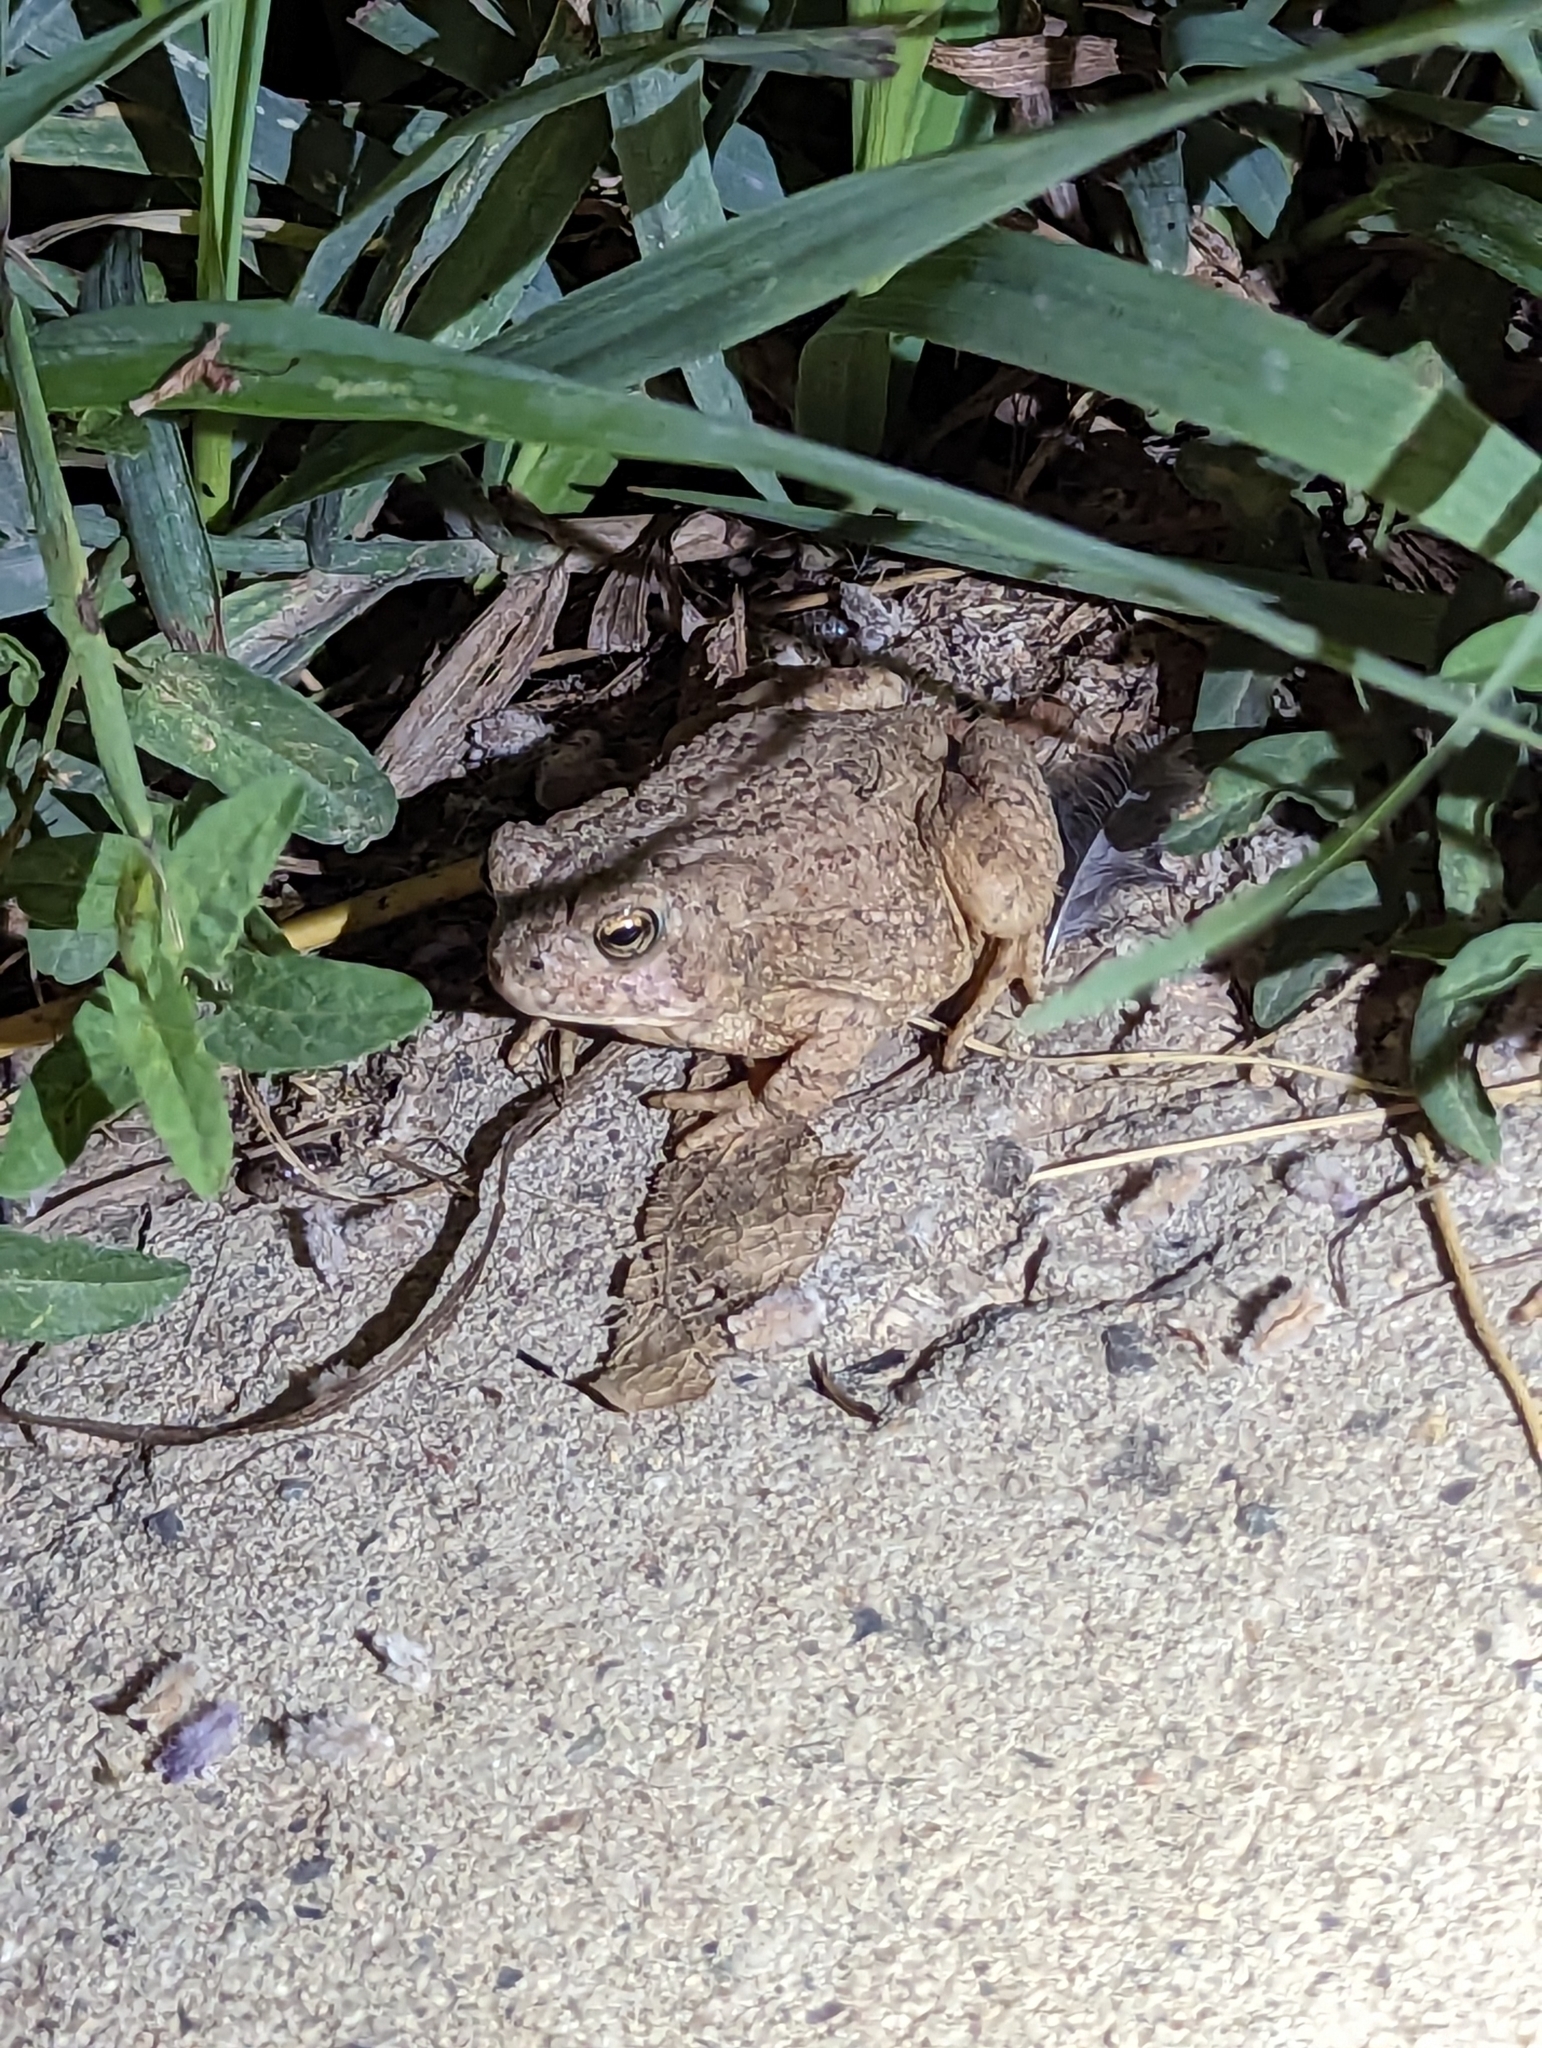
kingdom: Animalia
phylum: Chordata
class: Amphibia
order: Anura
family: Bufonidae
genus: Anaxyrus
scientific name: Anaxyrus woodhousii
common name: Woodhouse's toad
